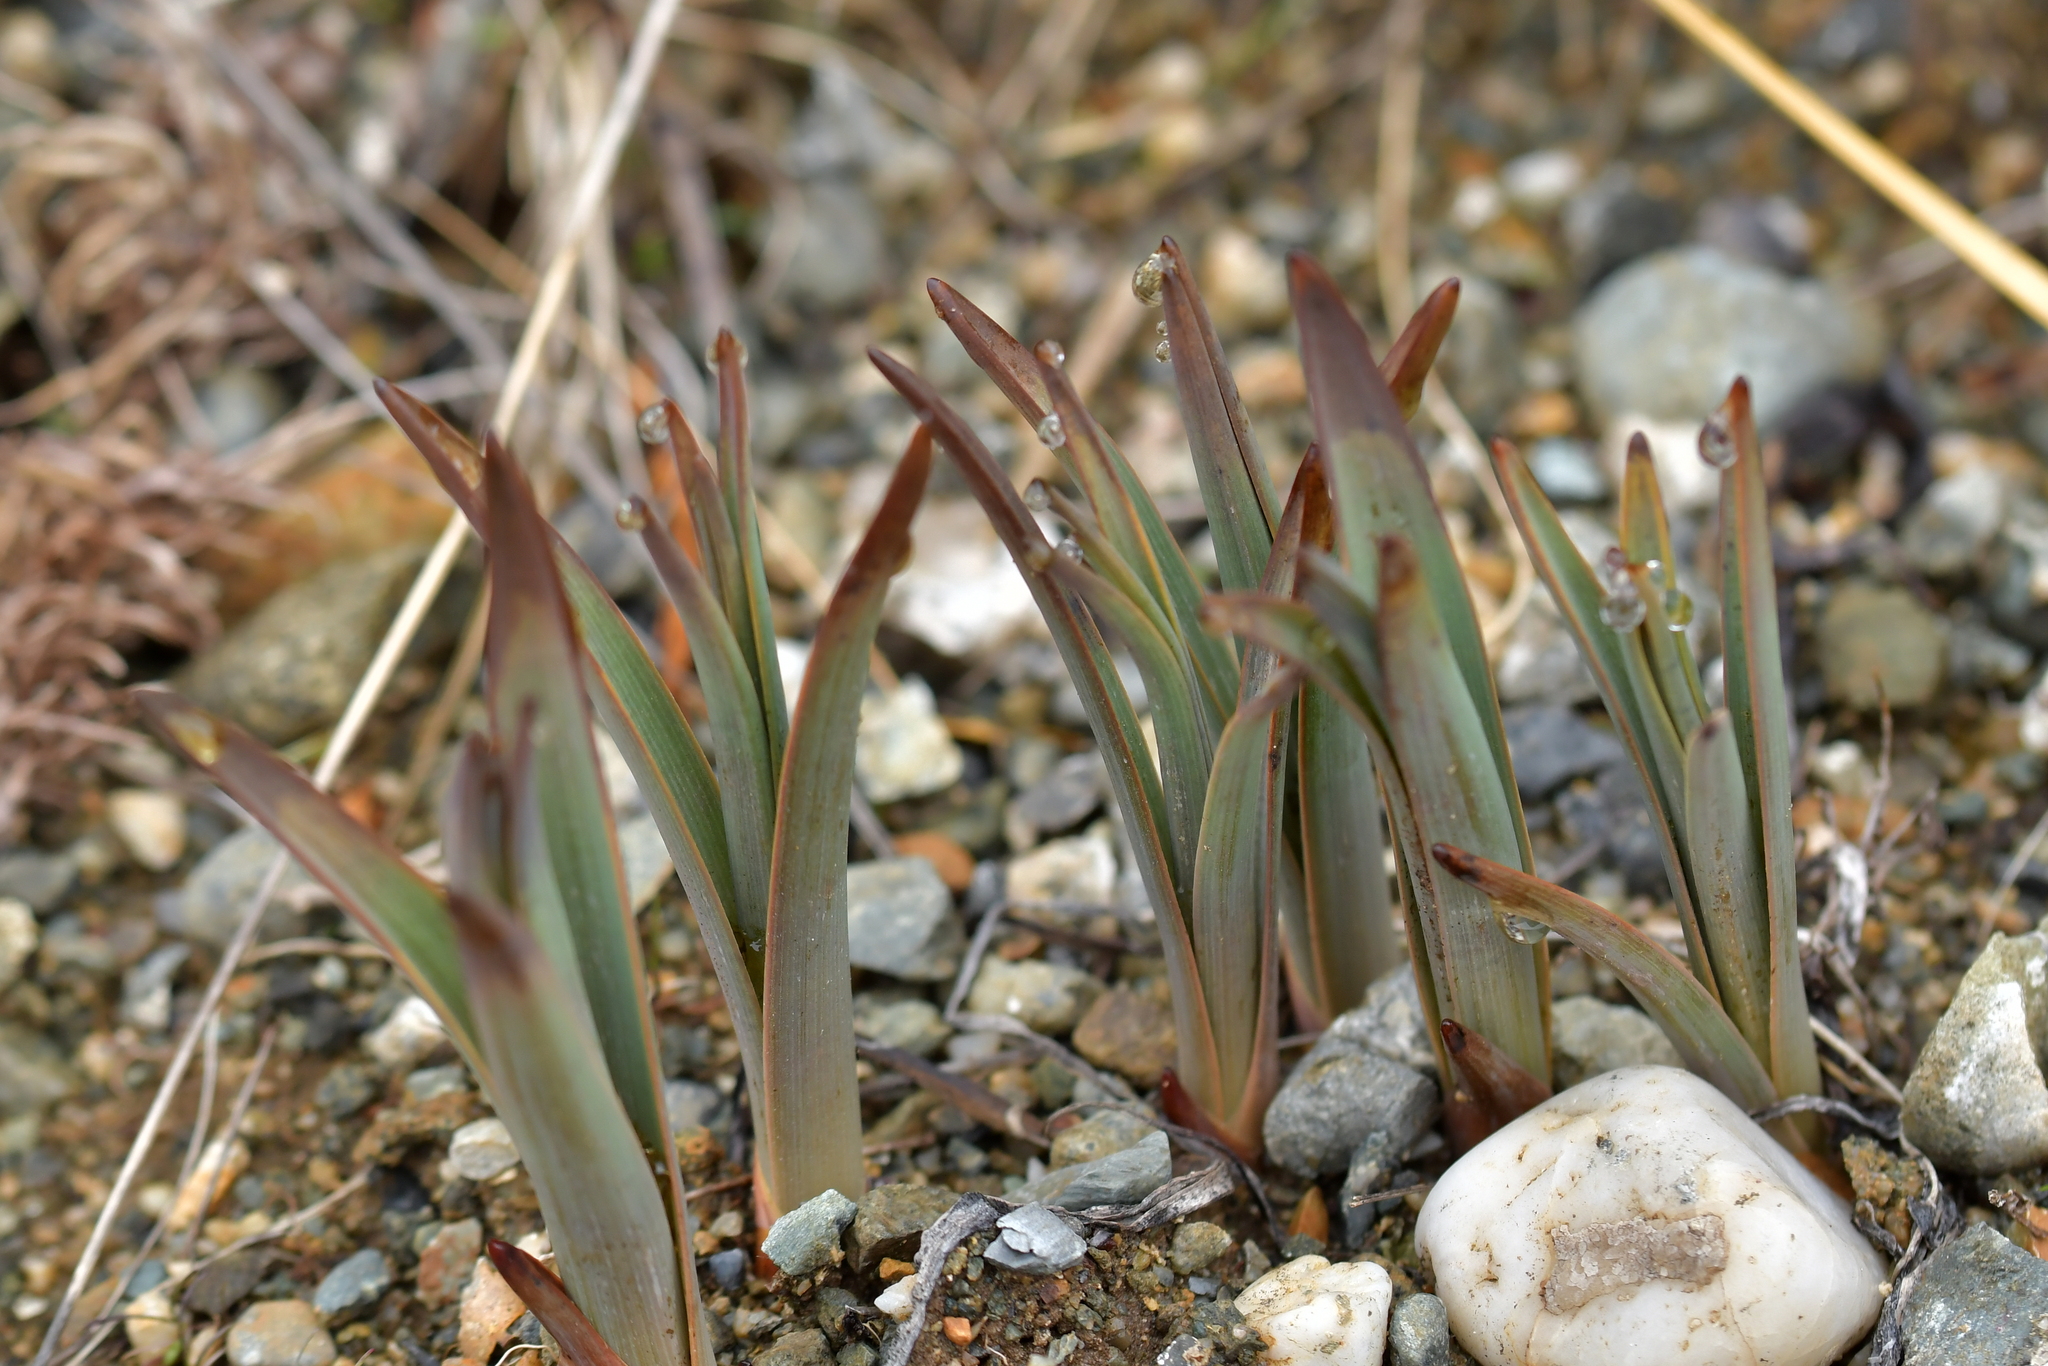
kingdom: Plantae
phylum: Tracheophyta
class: Liliopsida
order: Asparagales
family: Asphodelaceae
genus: Bulbinella
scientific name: Bulbinella hookeri
